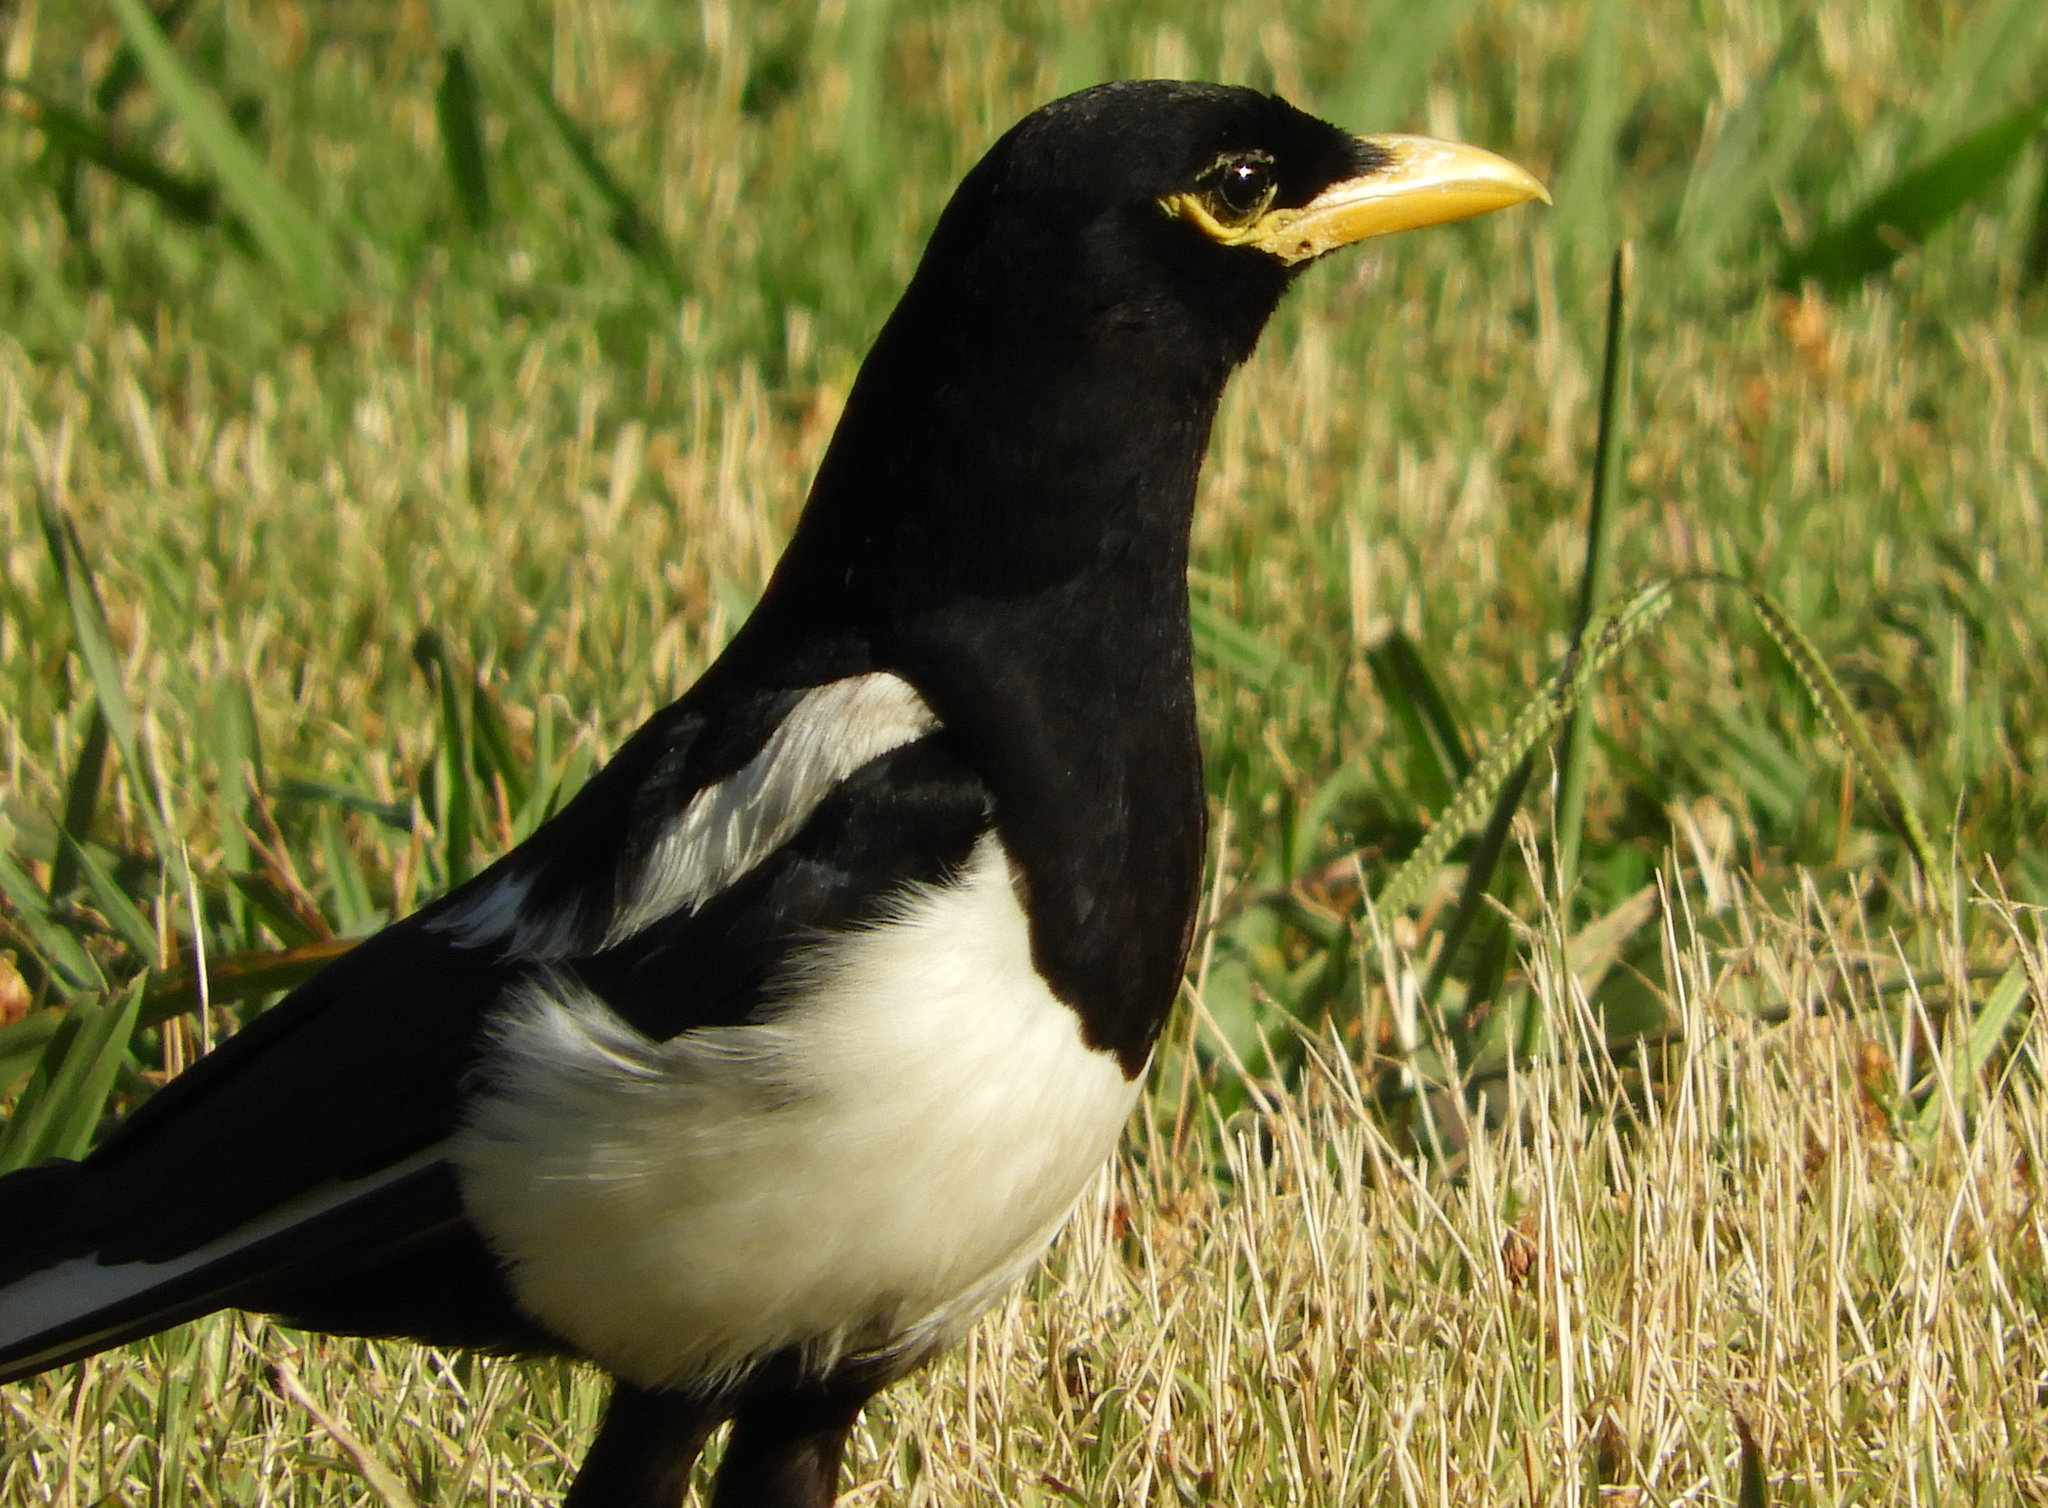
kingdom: Animalia
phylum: Chordata
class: Aves
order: Passeriformes
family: Corvidae
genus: Pica
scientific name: Pica nuttalli
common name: Yellow-billed magpie
